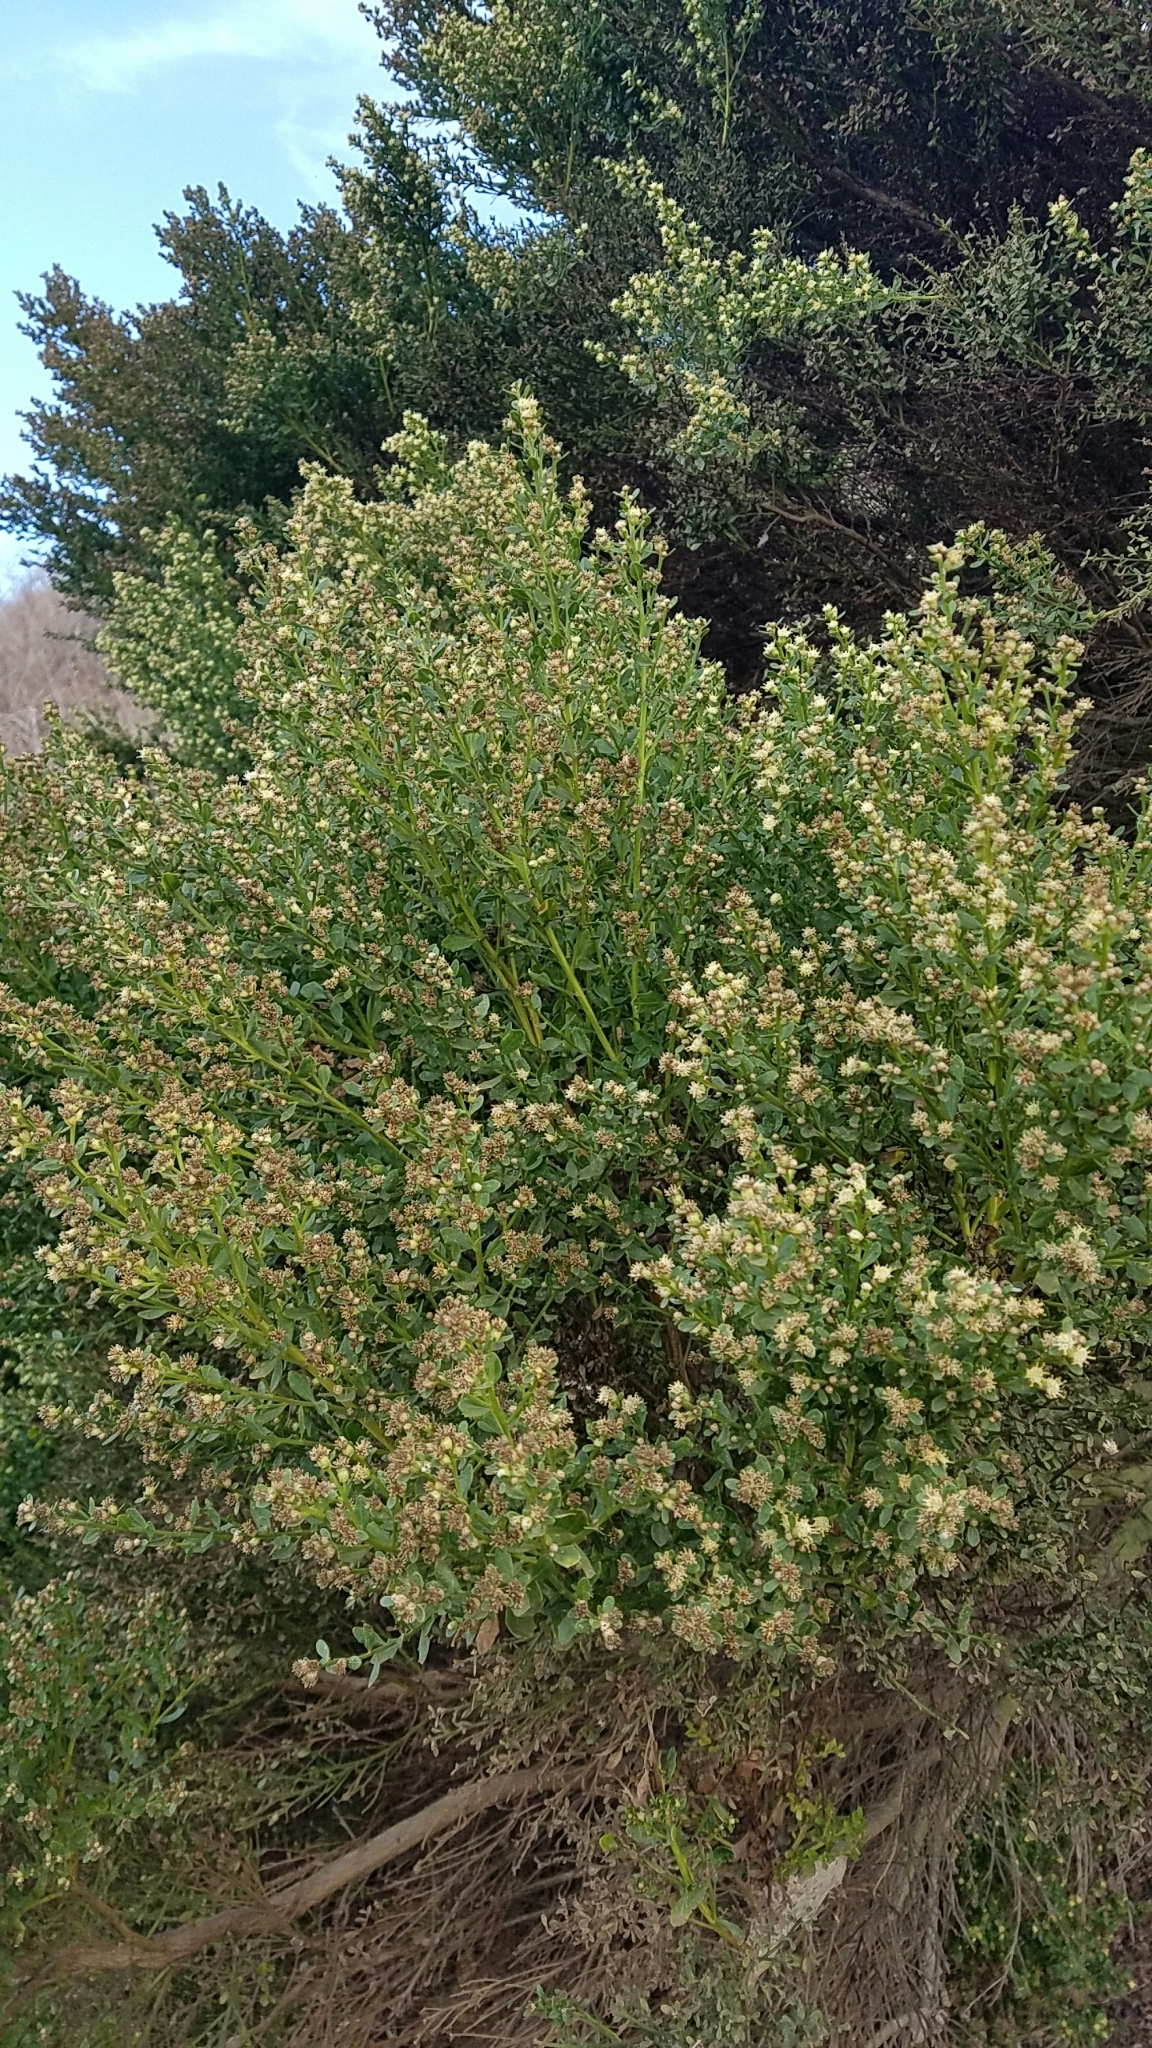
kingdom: Plantae
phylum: Tracheophyta
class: Magnoliopsida
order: Asterales
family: Asteraceae
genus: Baccharis
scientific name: Baccharis pilularis
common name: Coyotebrush
